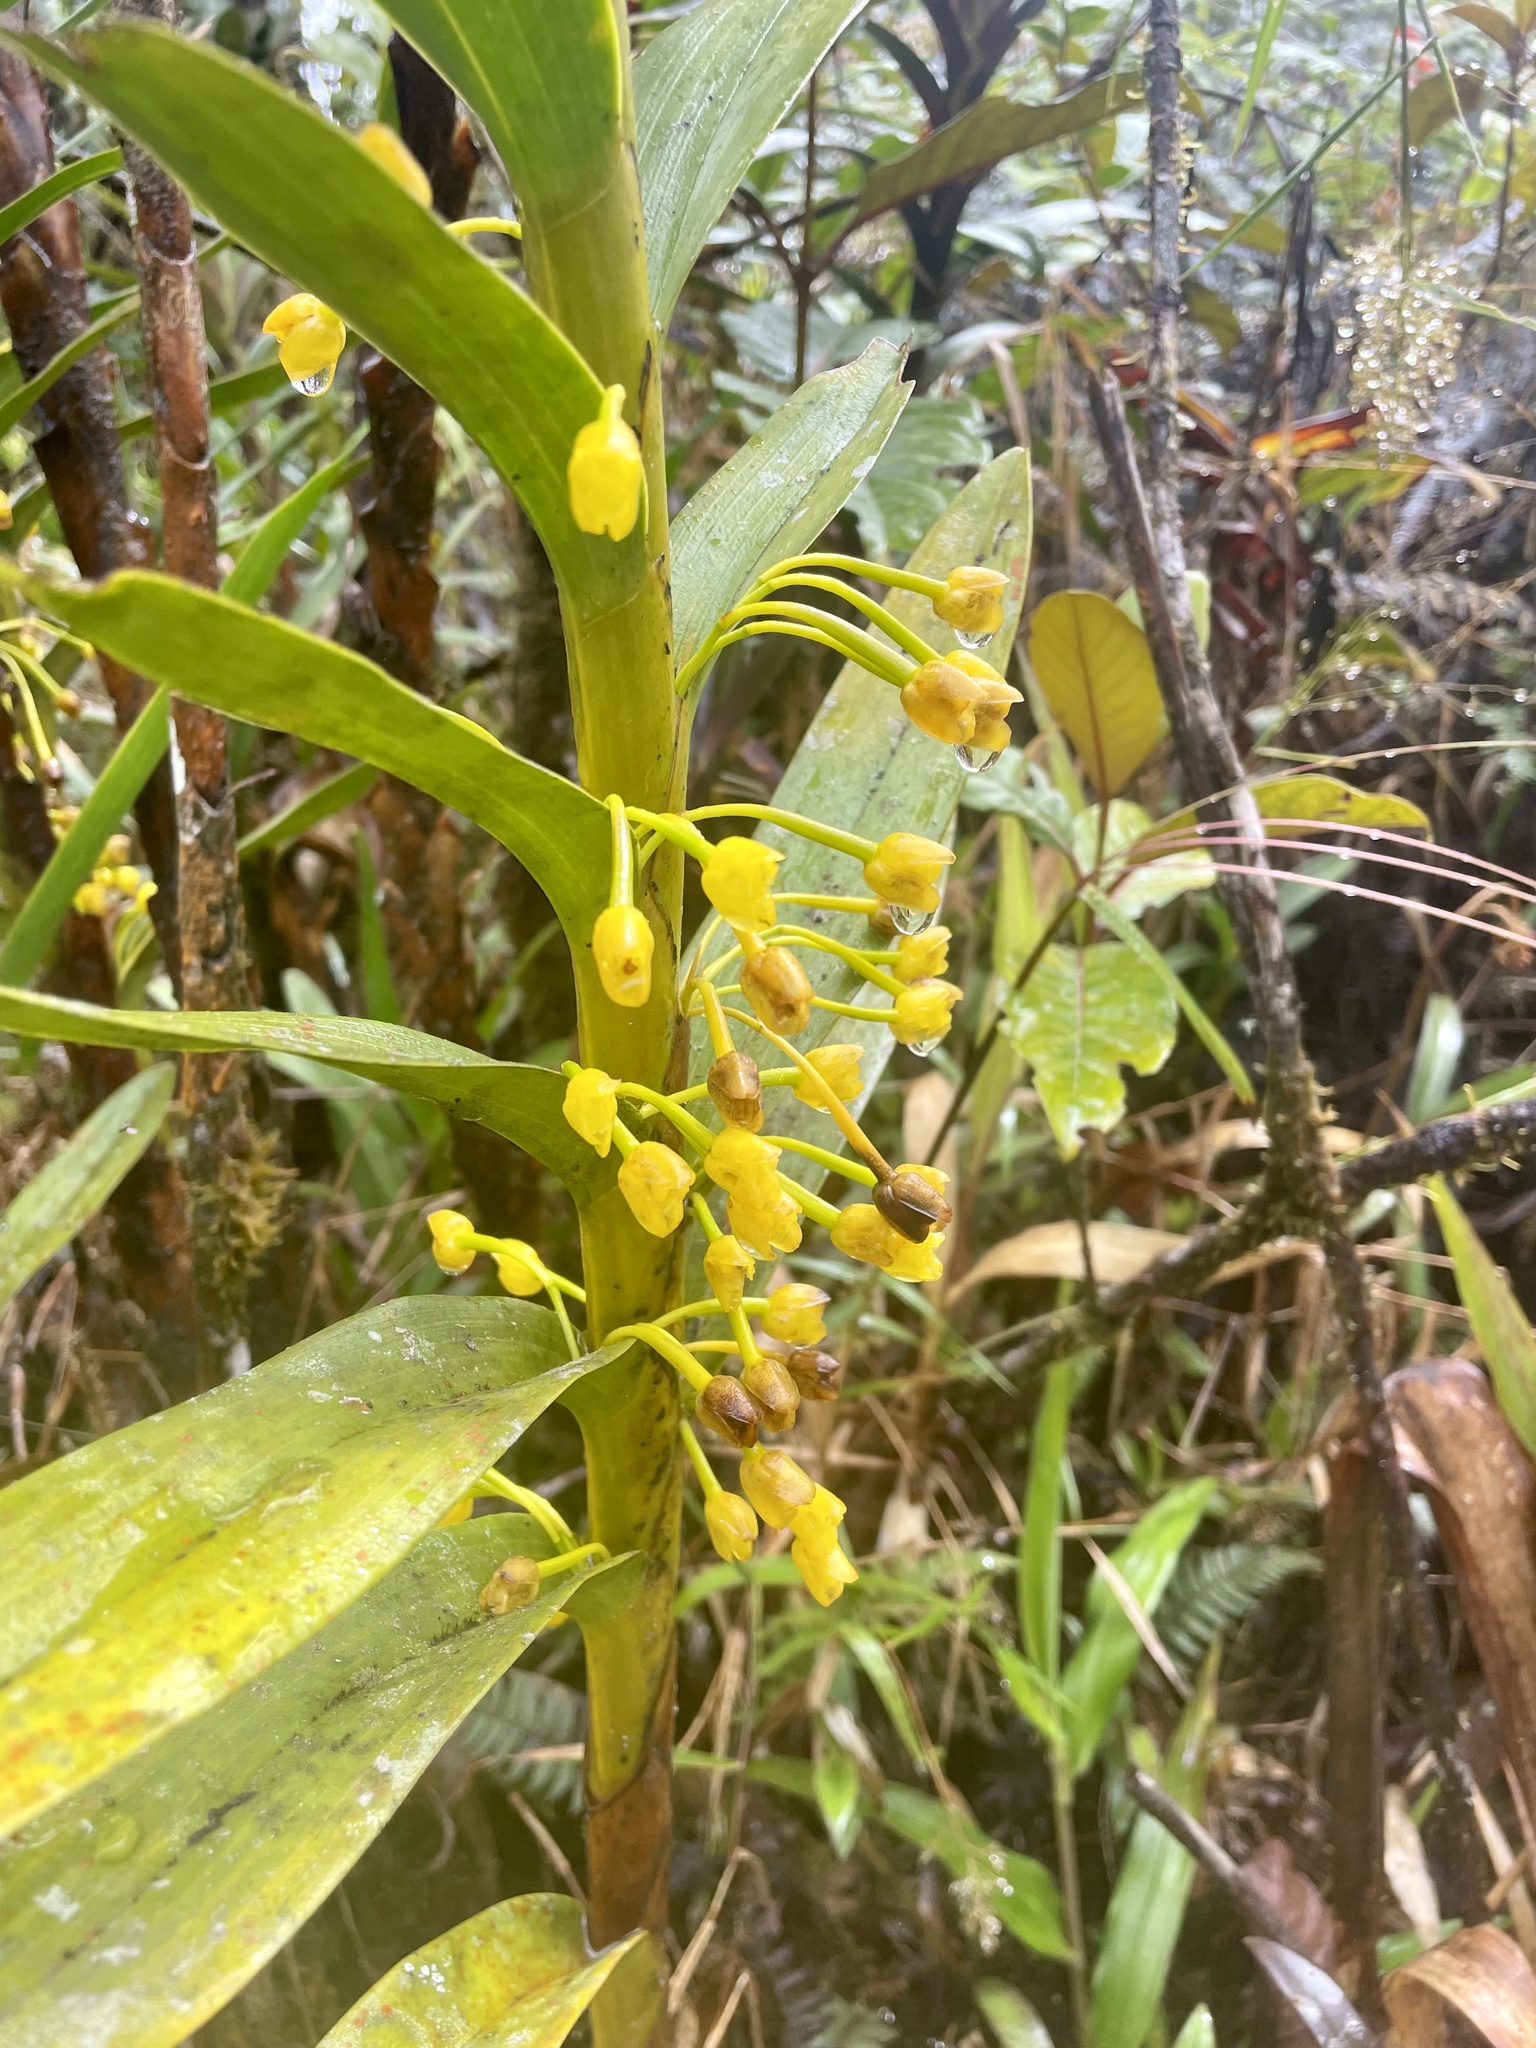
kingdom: Plantae
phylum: Tracheophyta
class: Liliopsida
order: Asparagales
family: Orchidaceae
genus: Maxillaria
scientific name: Maxillaria aurea
